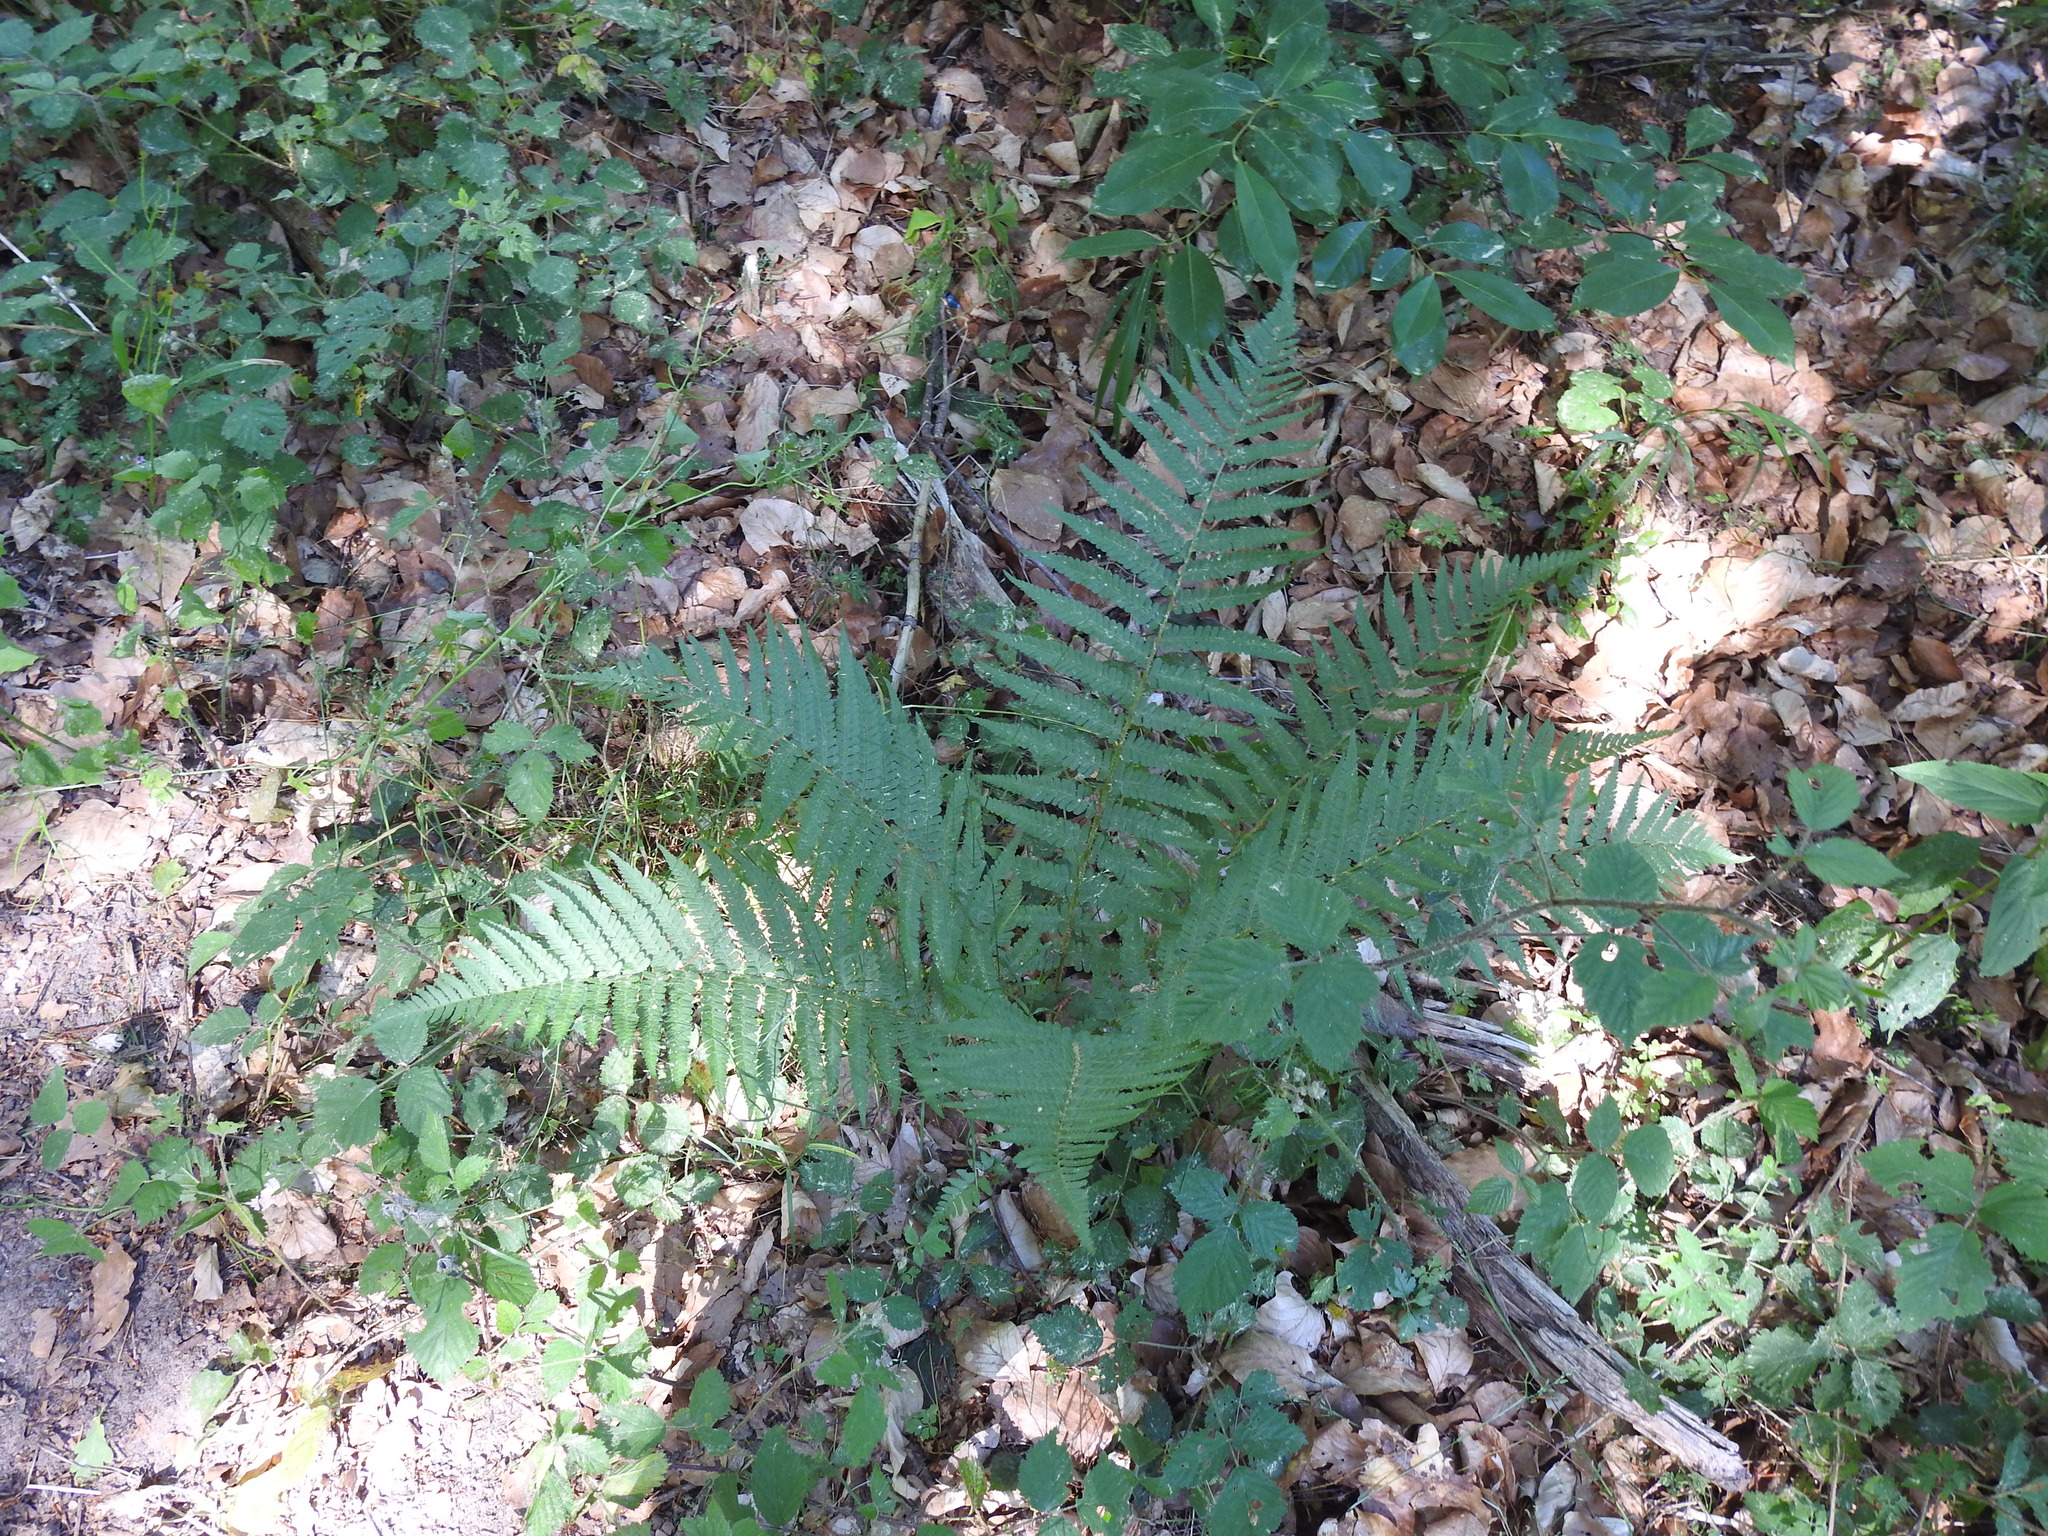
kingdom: Plantae
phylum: Tracheophyta
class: Polypodiopsida
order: Polypodiales
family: Dryopteridaceae
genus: Dryopteris
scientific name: Dryopteris filix-mas
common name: Male fern
